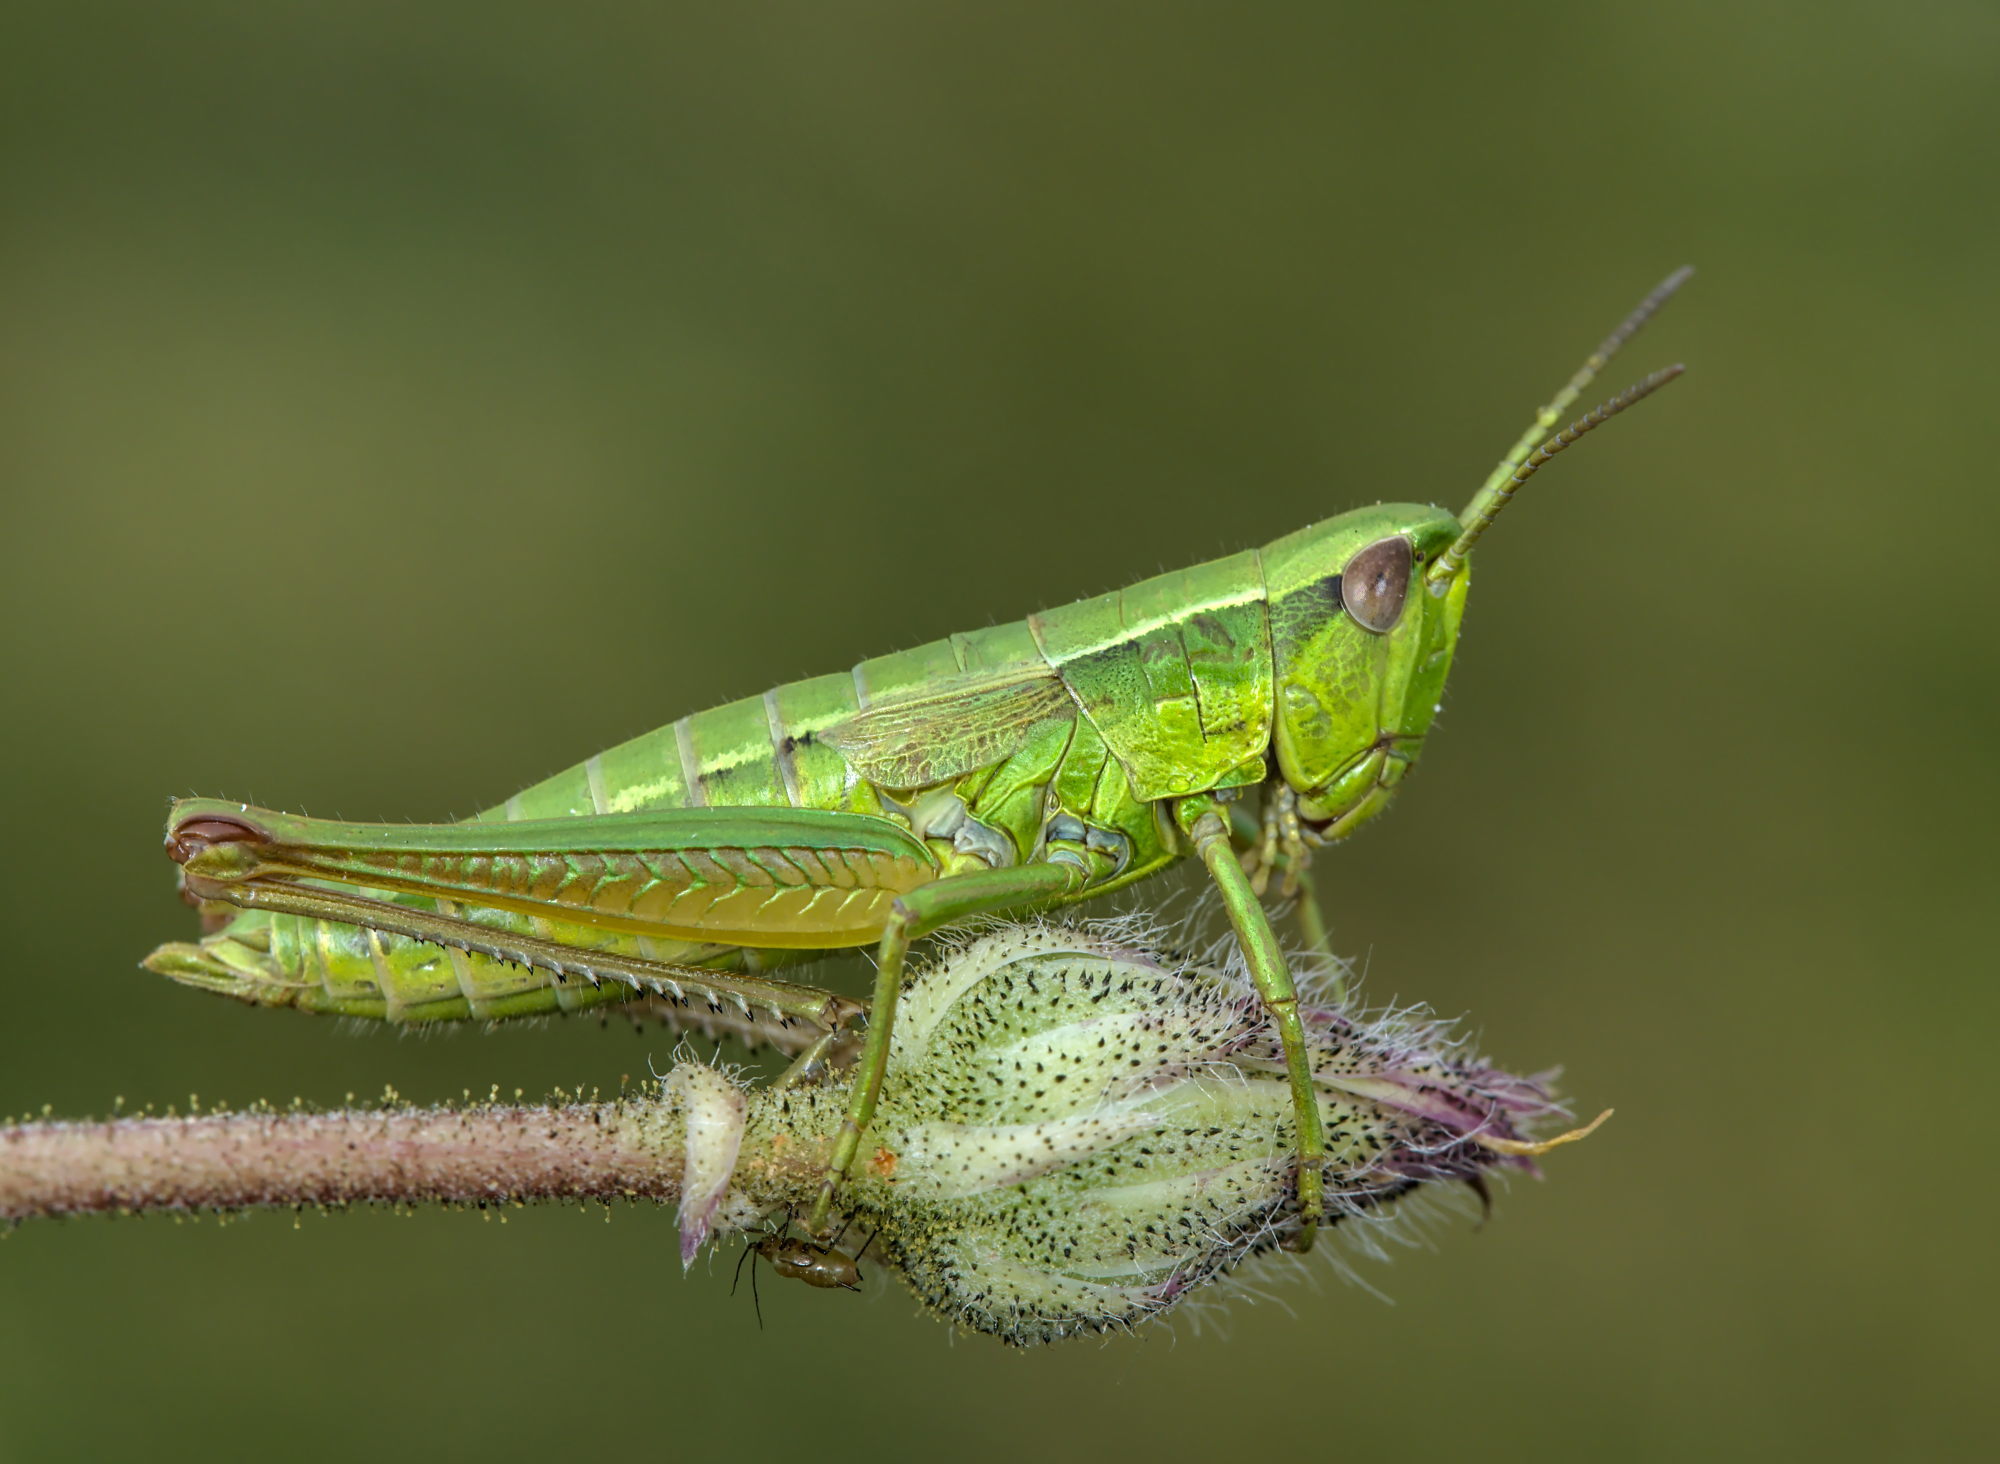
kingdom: Animalia
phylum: Arthropoda
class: Insecta
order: Orthoptera
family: Acrididae
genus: Euthystira
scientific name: Euthystira brachyptera
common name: Small gold grasshopper
